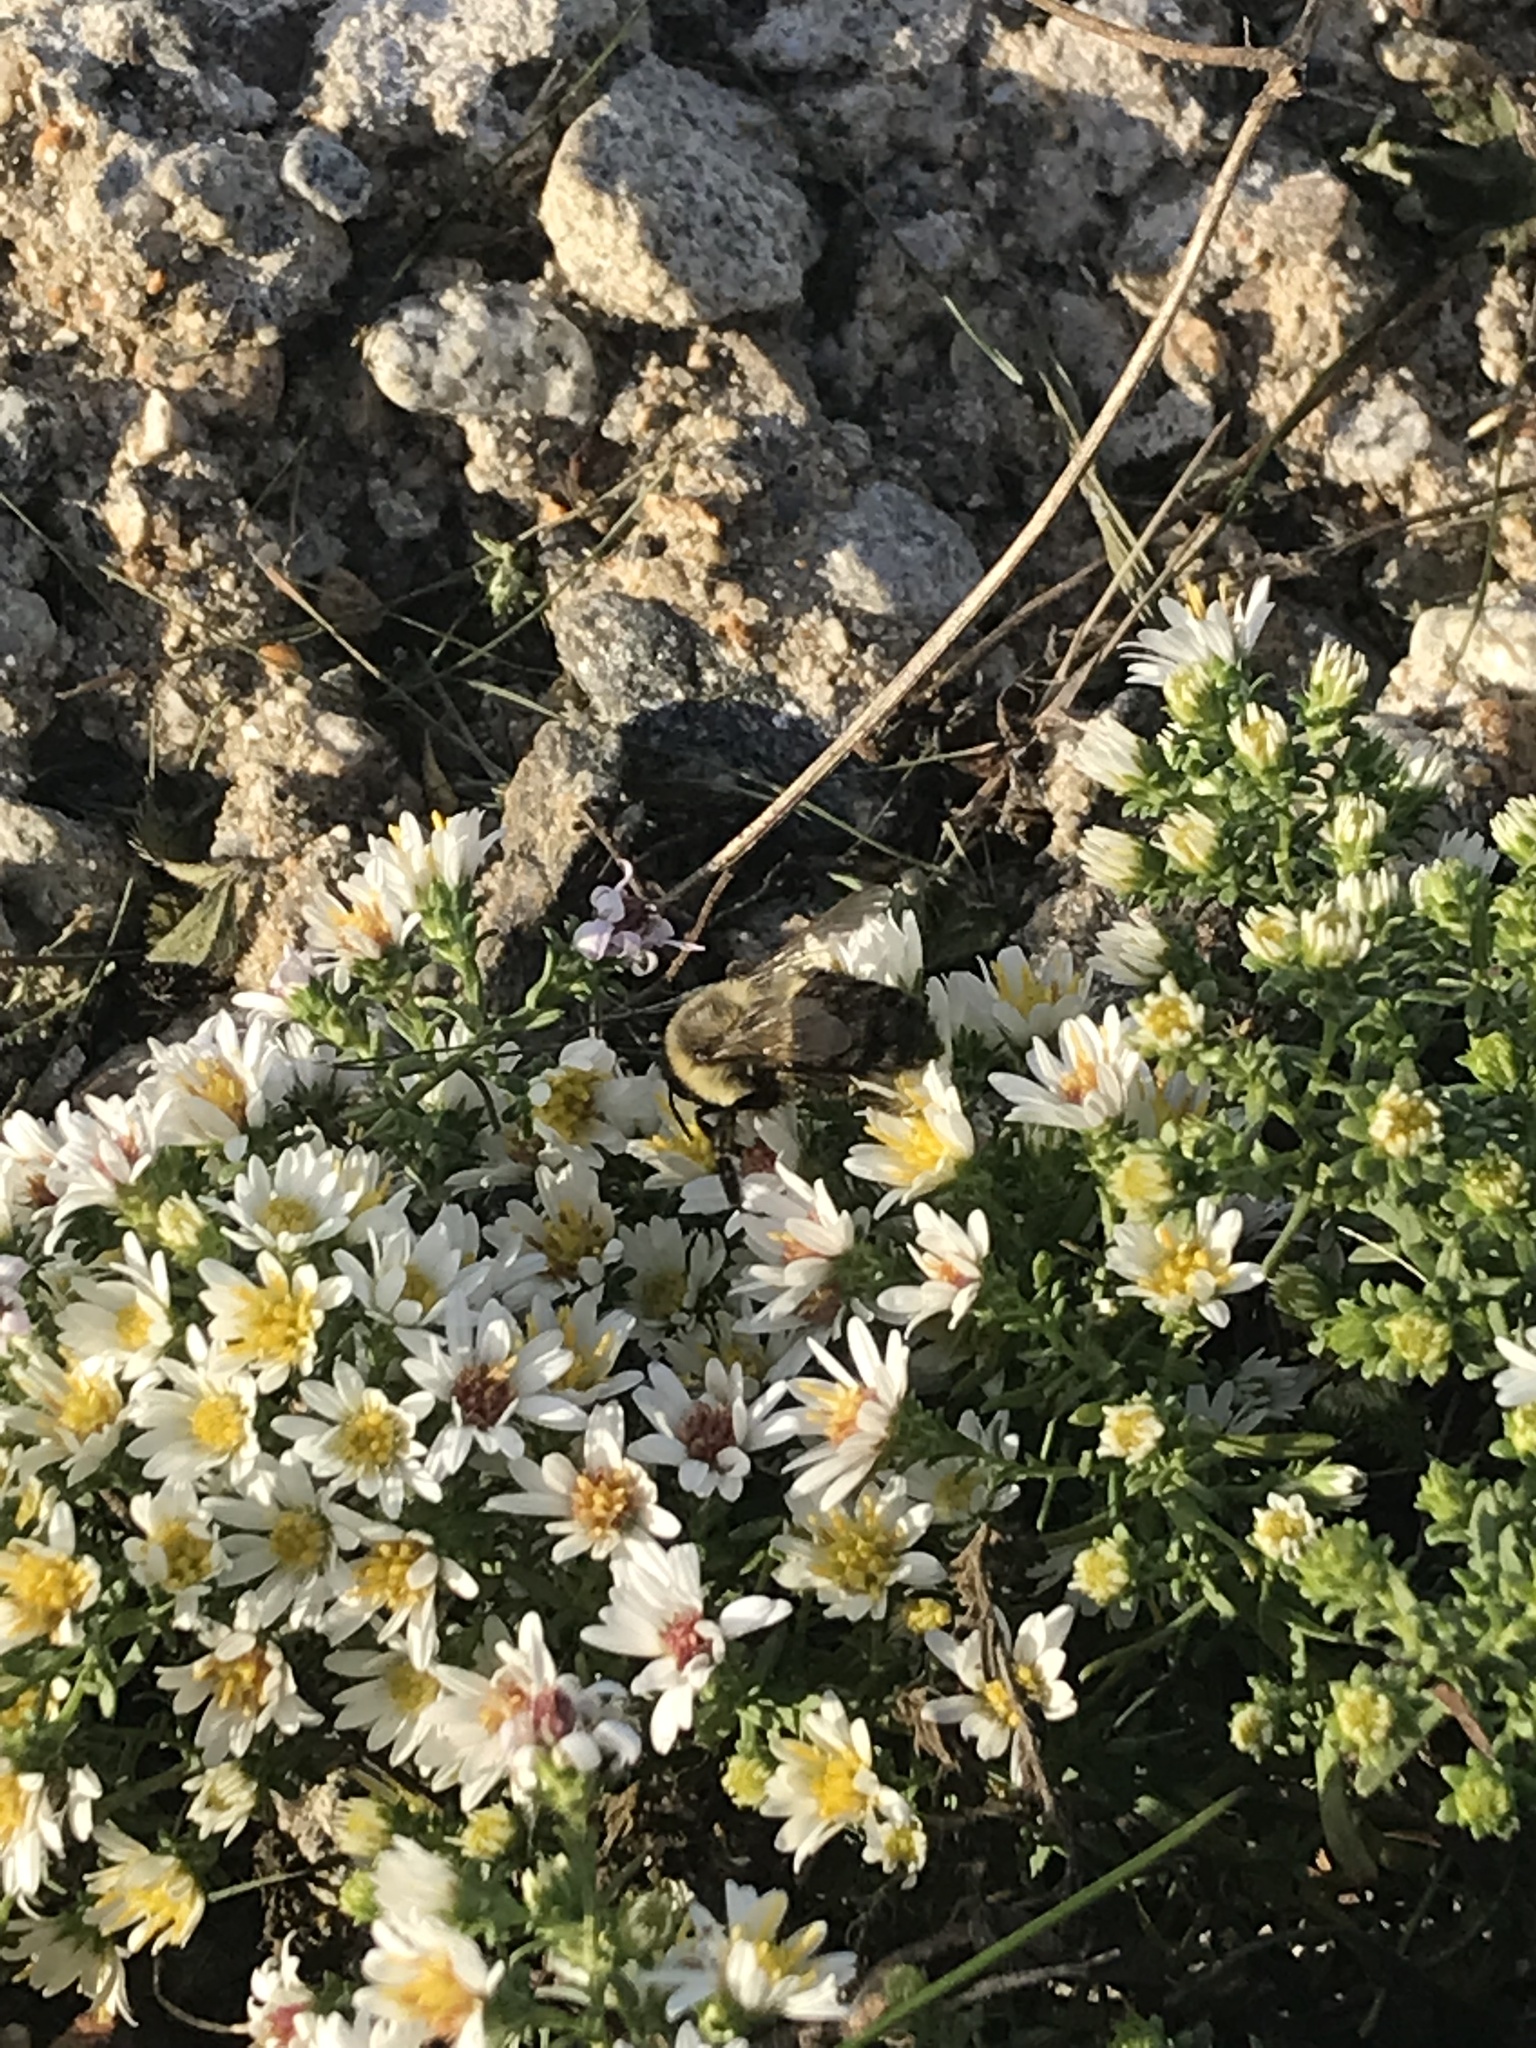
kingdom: Animalia
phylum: Arthropoda
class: Insecta
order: Hymenoptera
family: Apidae
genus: Bombus
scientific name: Bombus impatiens
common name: Common eastern bumble bee
